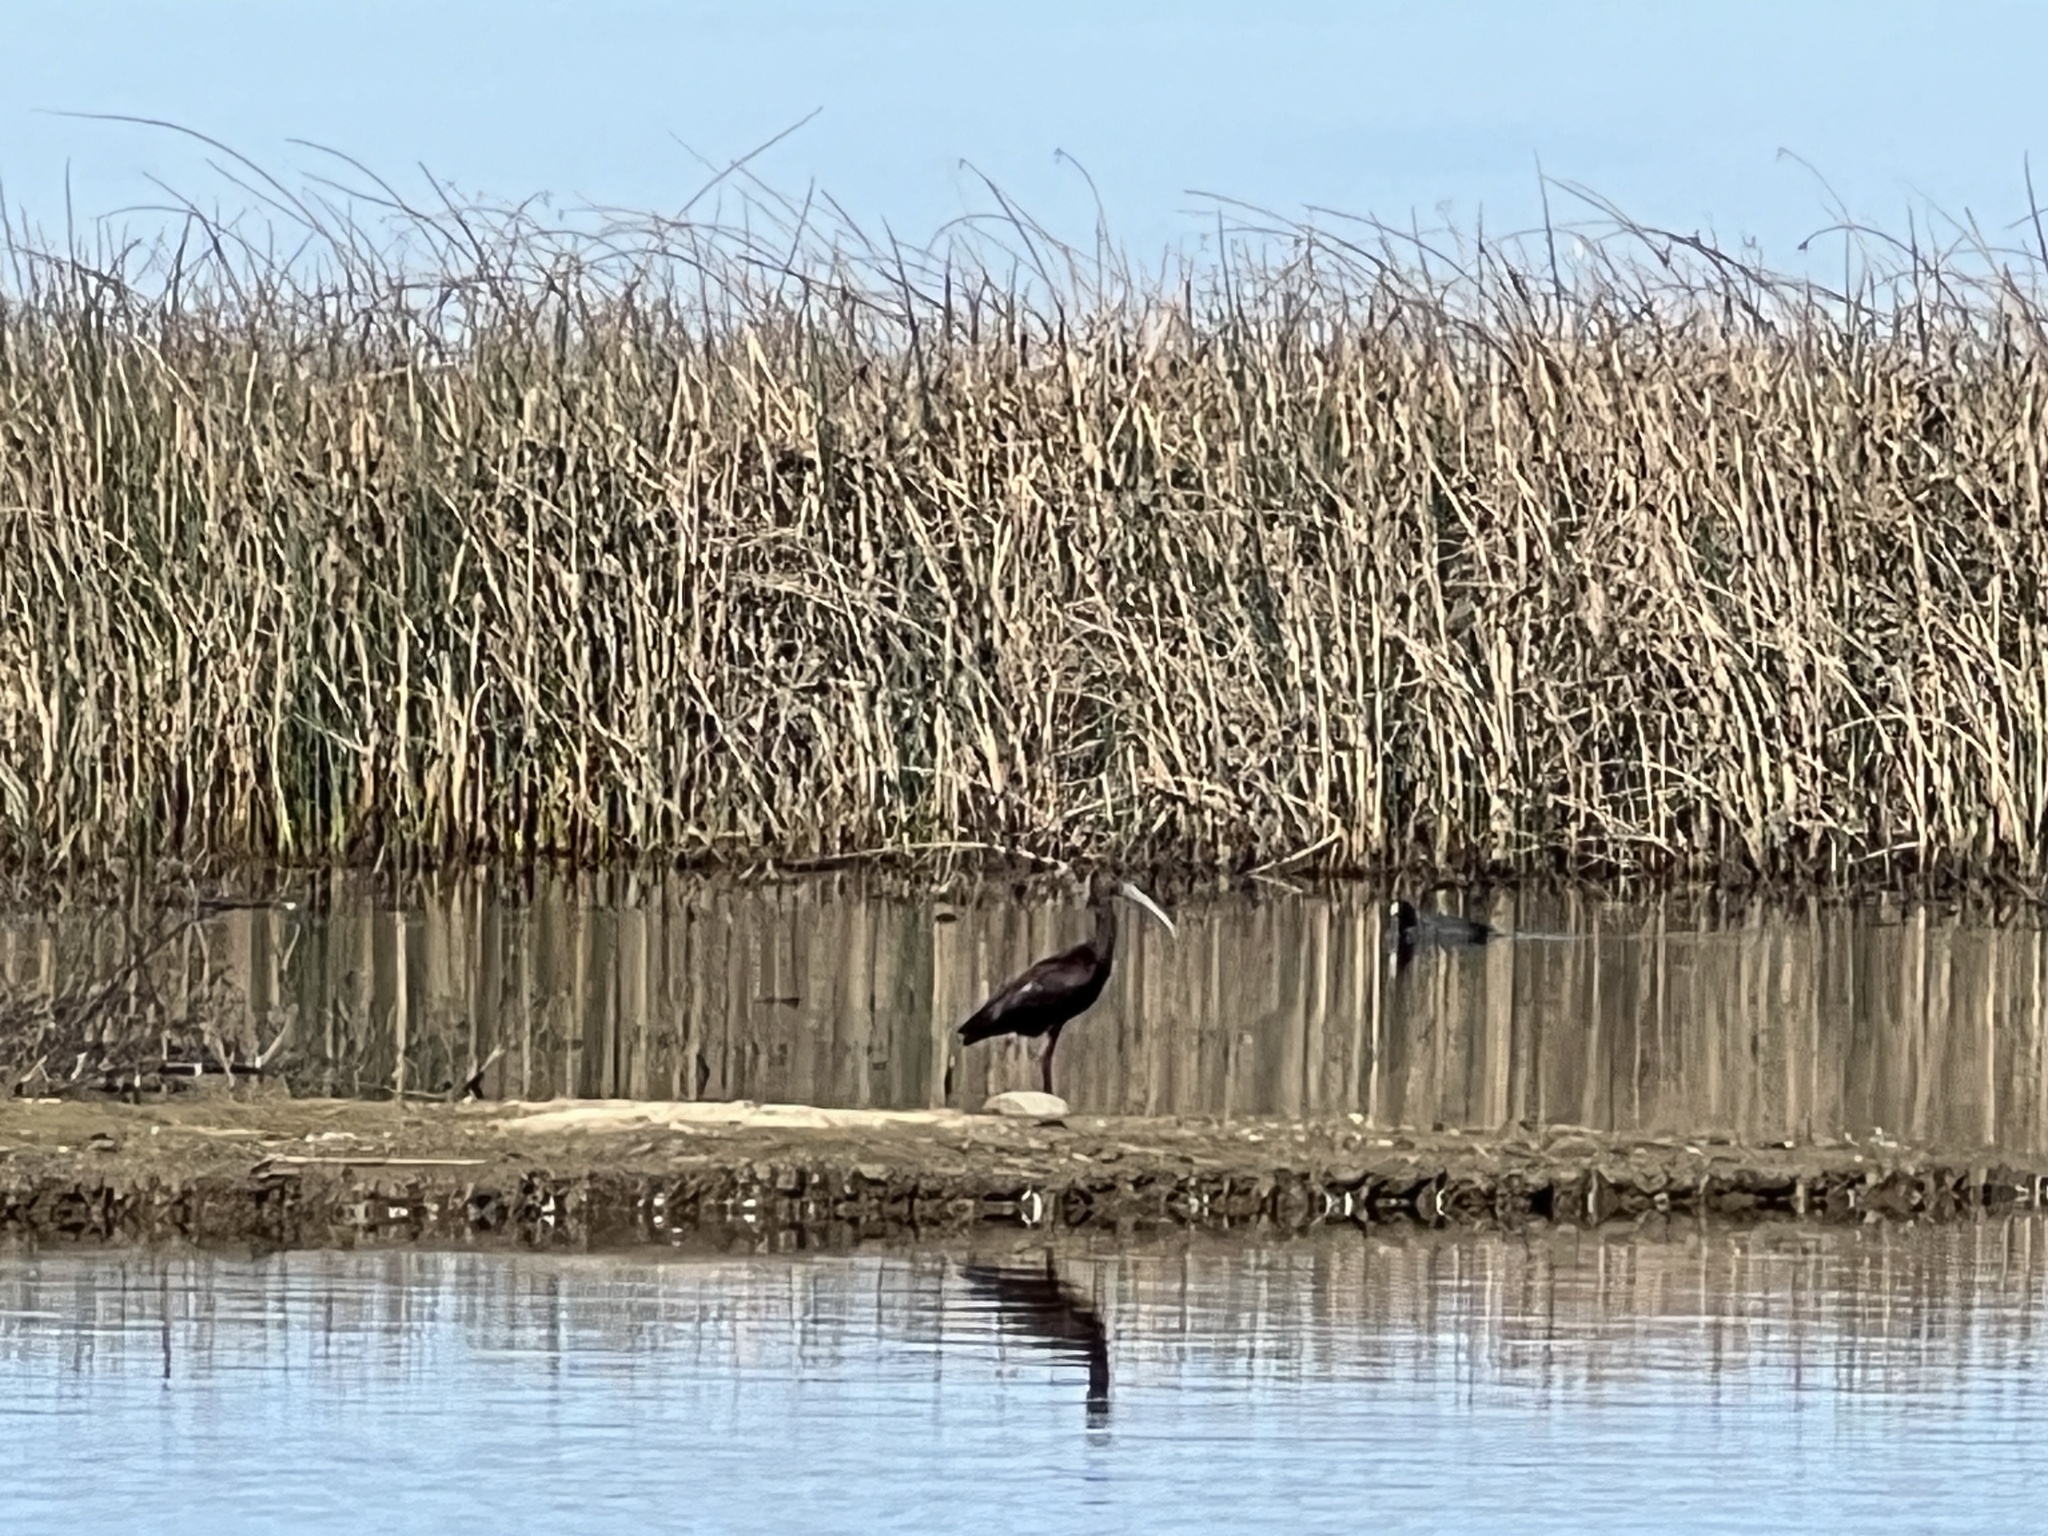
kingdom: Animalia
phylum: Chordata
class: Aves
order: Pelecaniformes
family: Threskiornithidae
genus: Plegadis
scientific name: Plegadis chihi
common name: White-faced ibis
